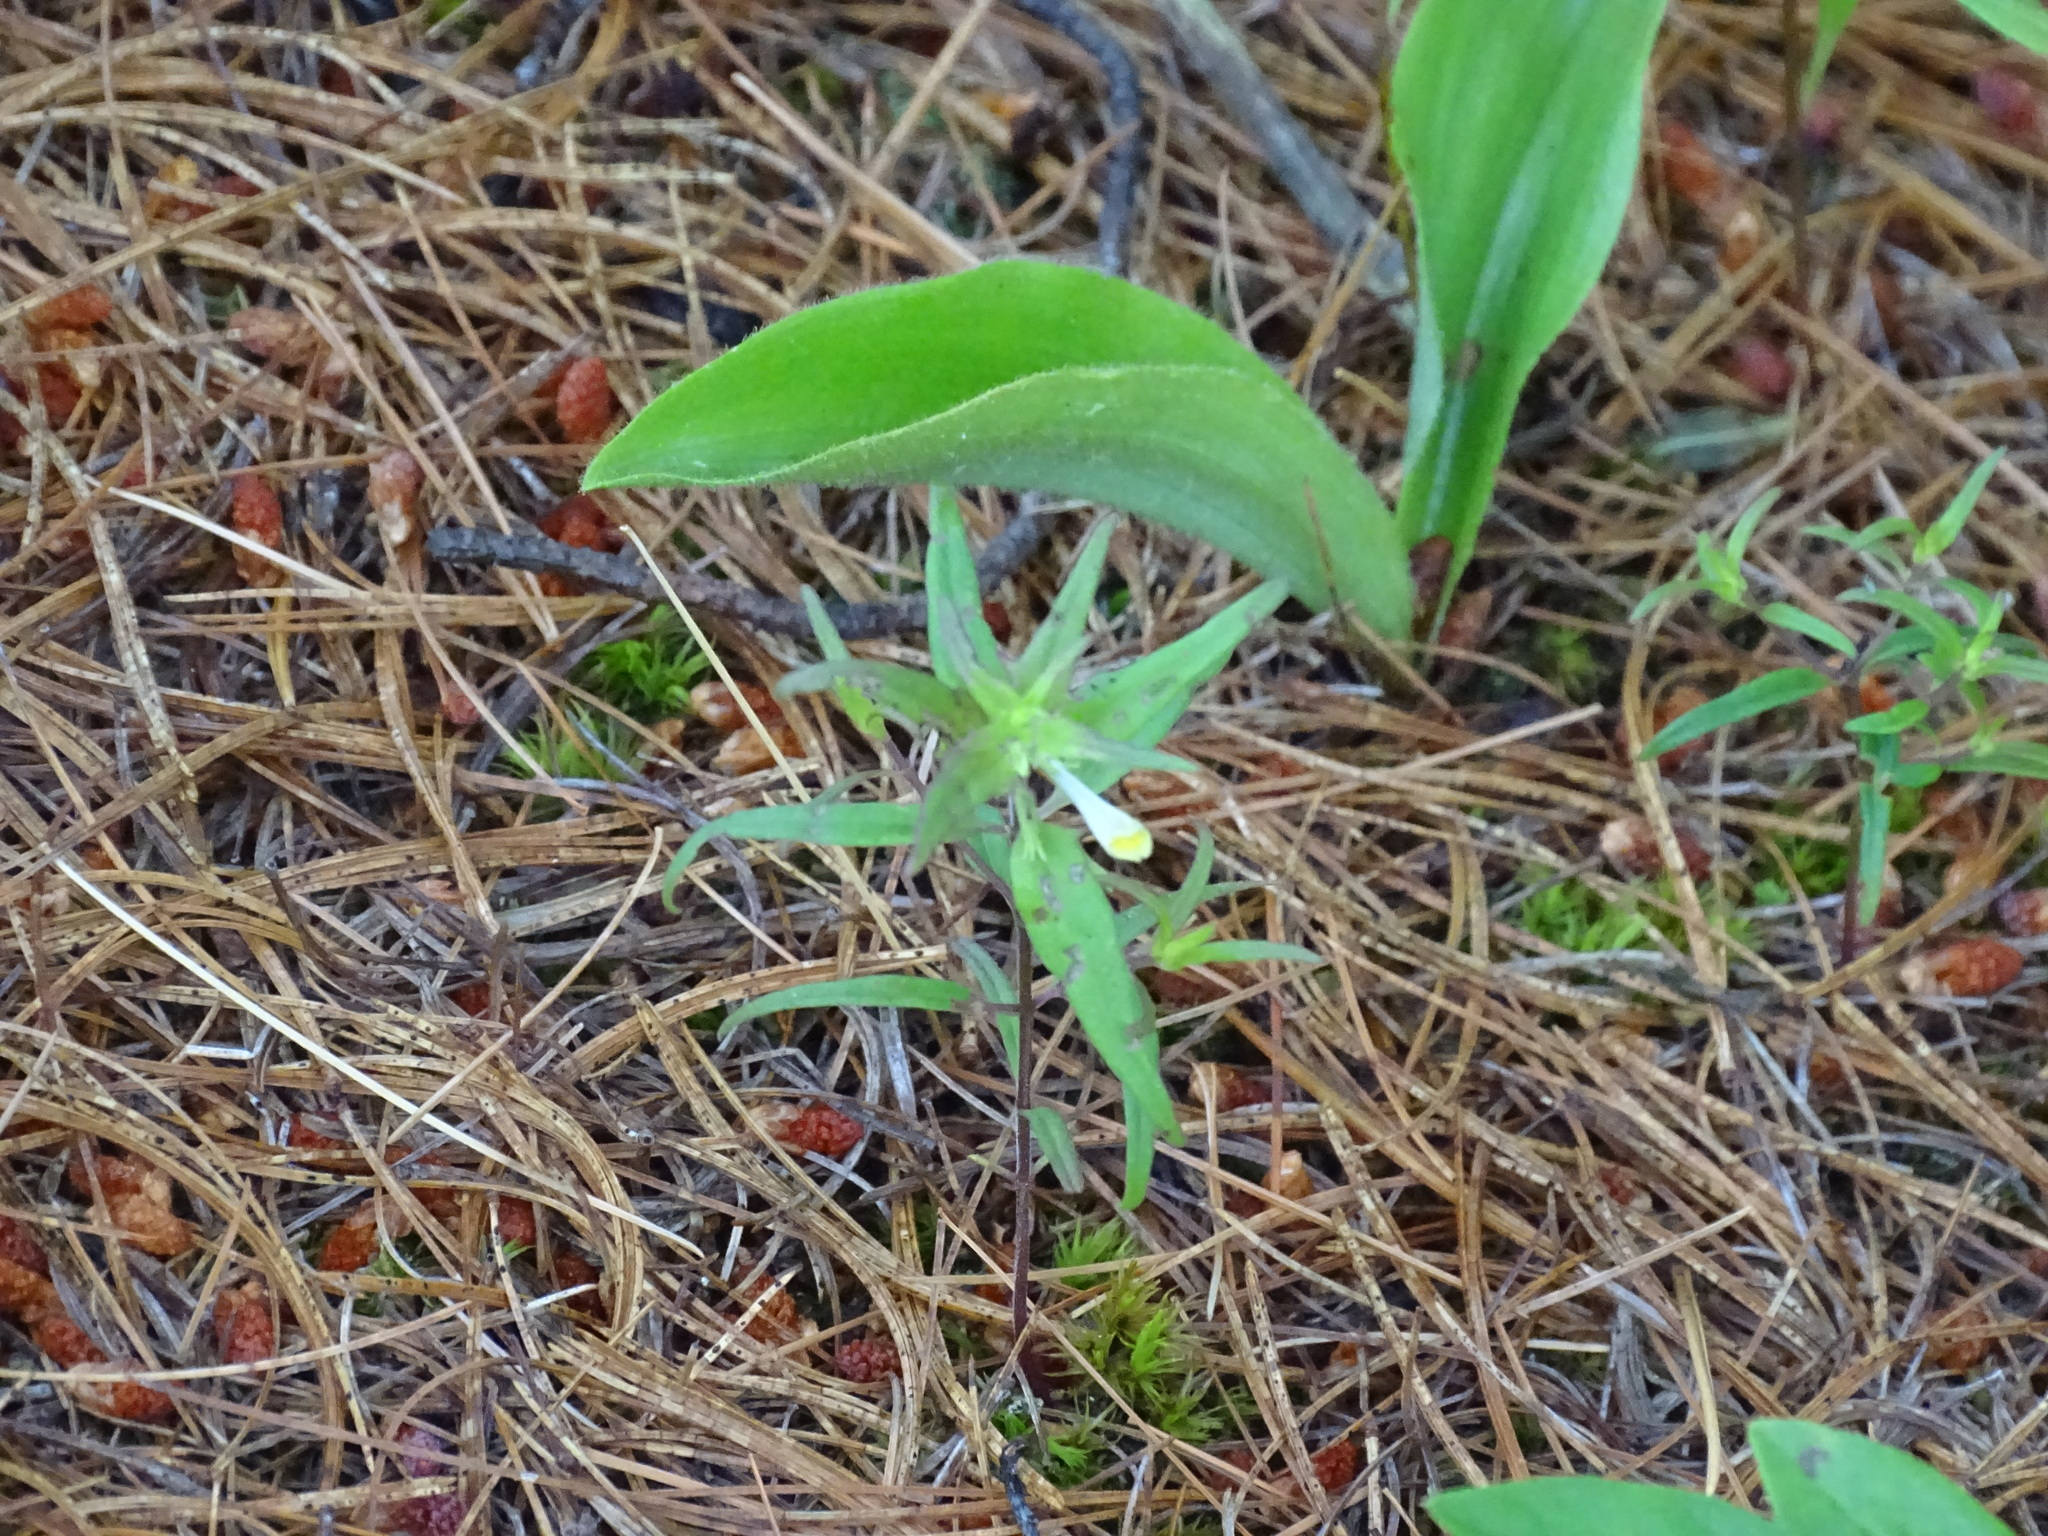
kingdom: Plantae
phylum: Tracheophyta
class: Magnoliopsida
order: Lamiales
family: Orobanchaceae
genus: Melampyrum
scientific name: Melampyrum lineare
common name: American cow-wheat
